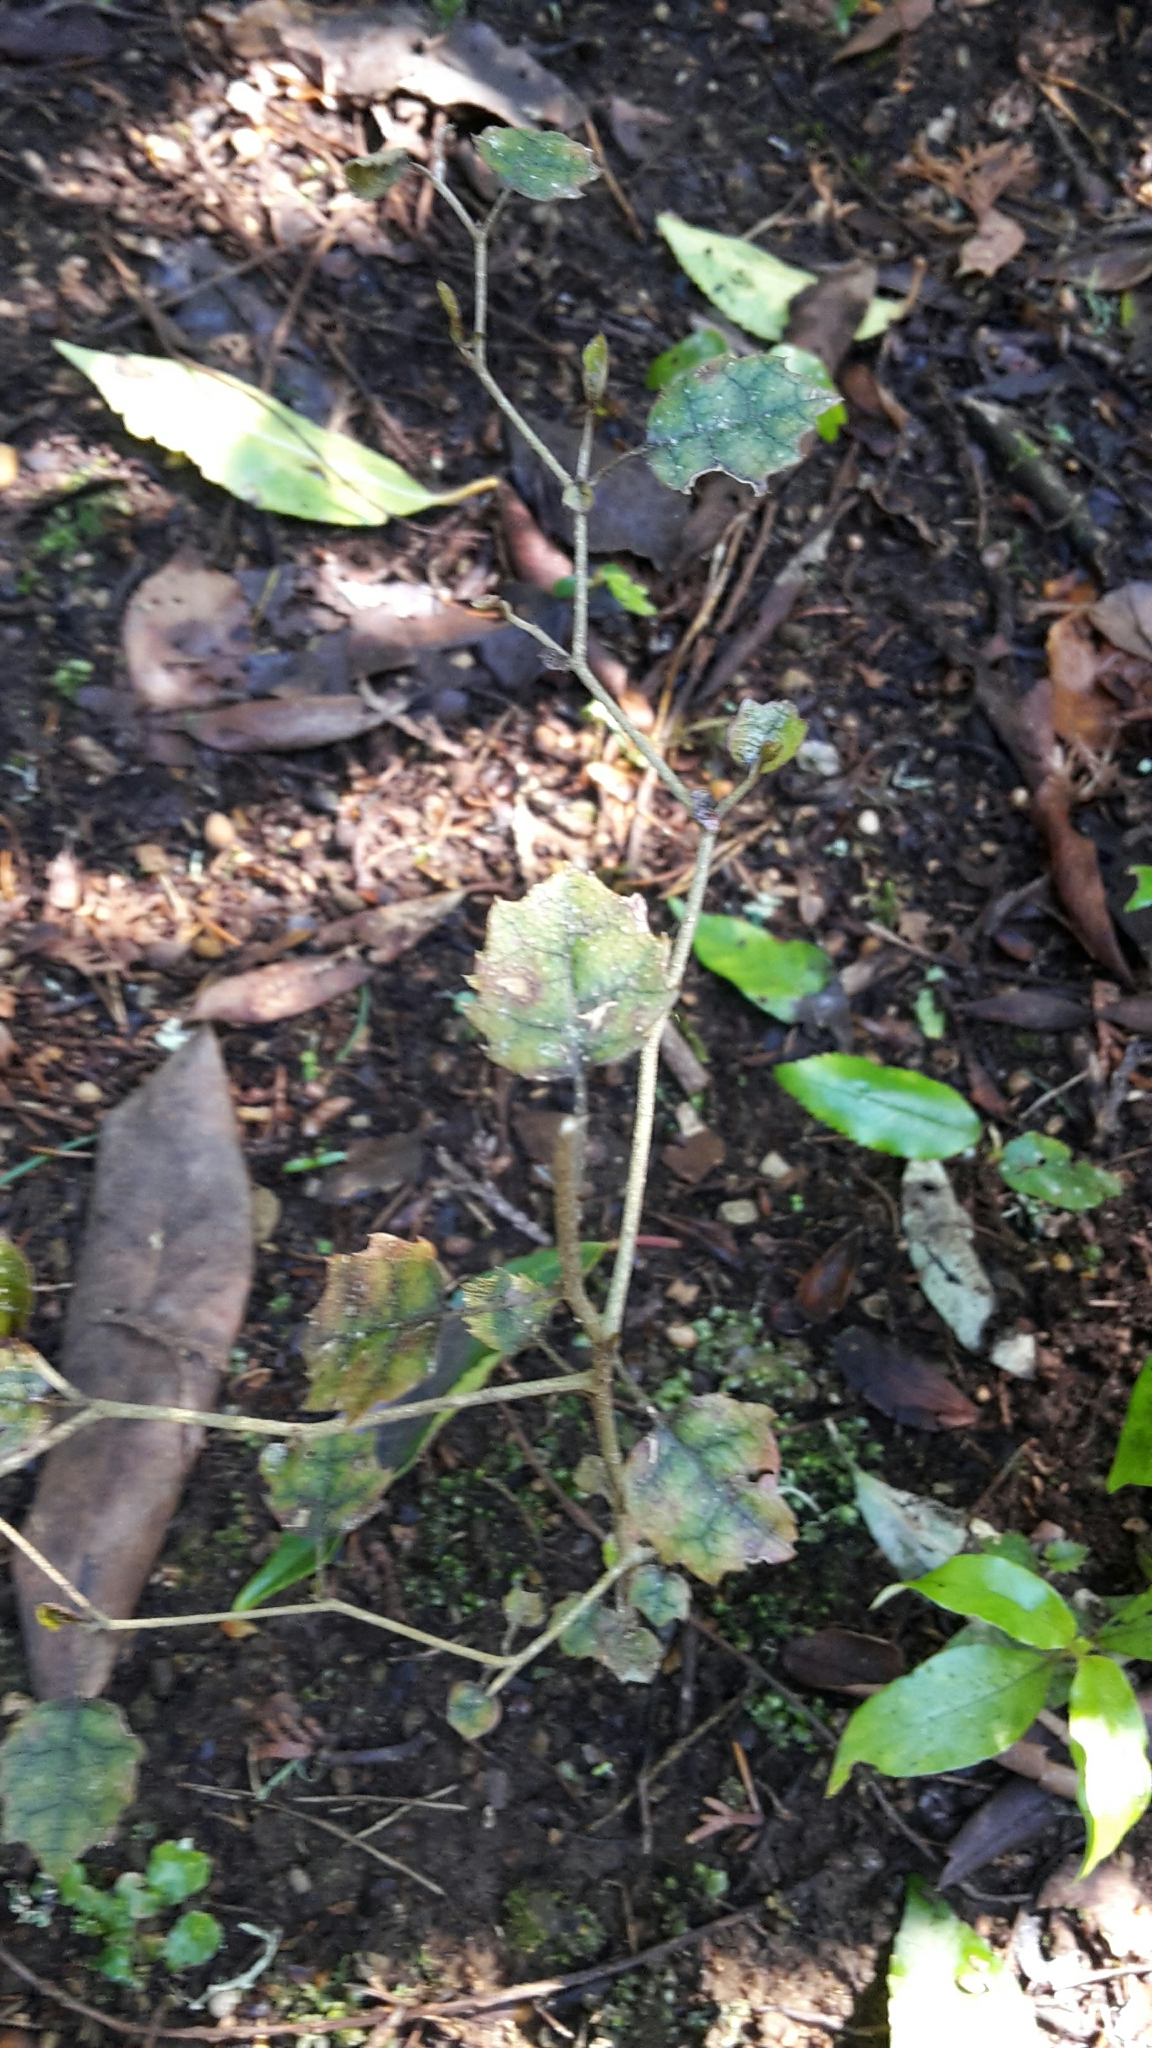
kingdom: Plantae
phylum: Tracheophyta
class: Magnoliopsida
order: Asterales
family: Rousseaceae
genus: Carpodetus
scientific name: Carpodetus serratus
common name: White mapau
